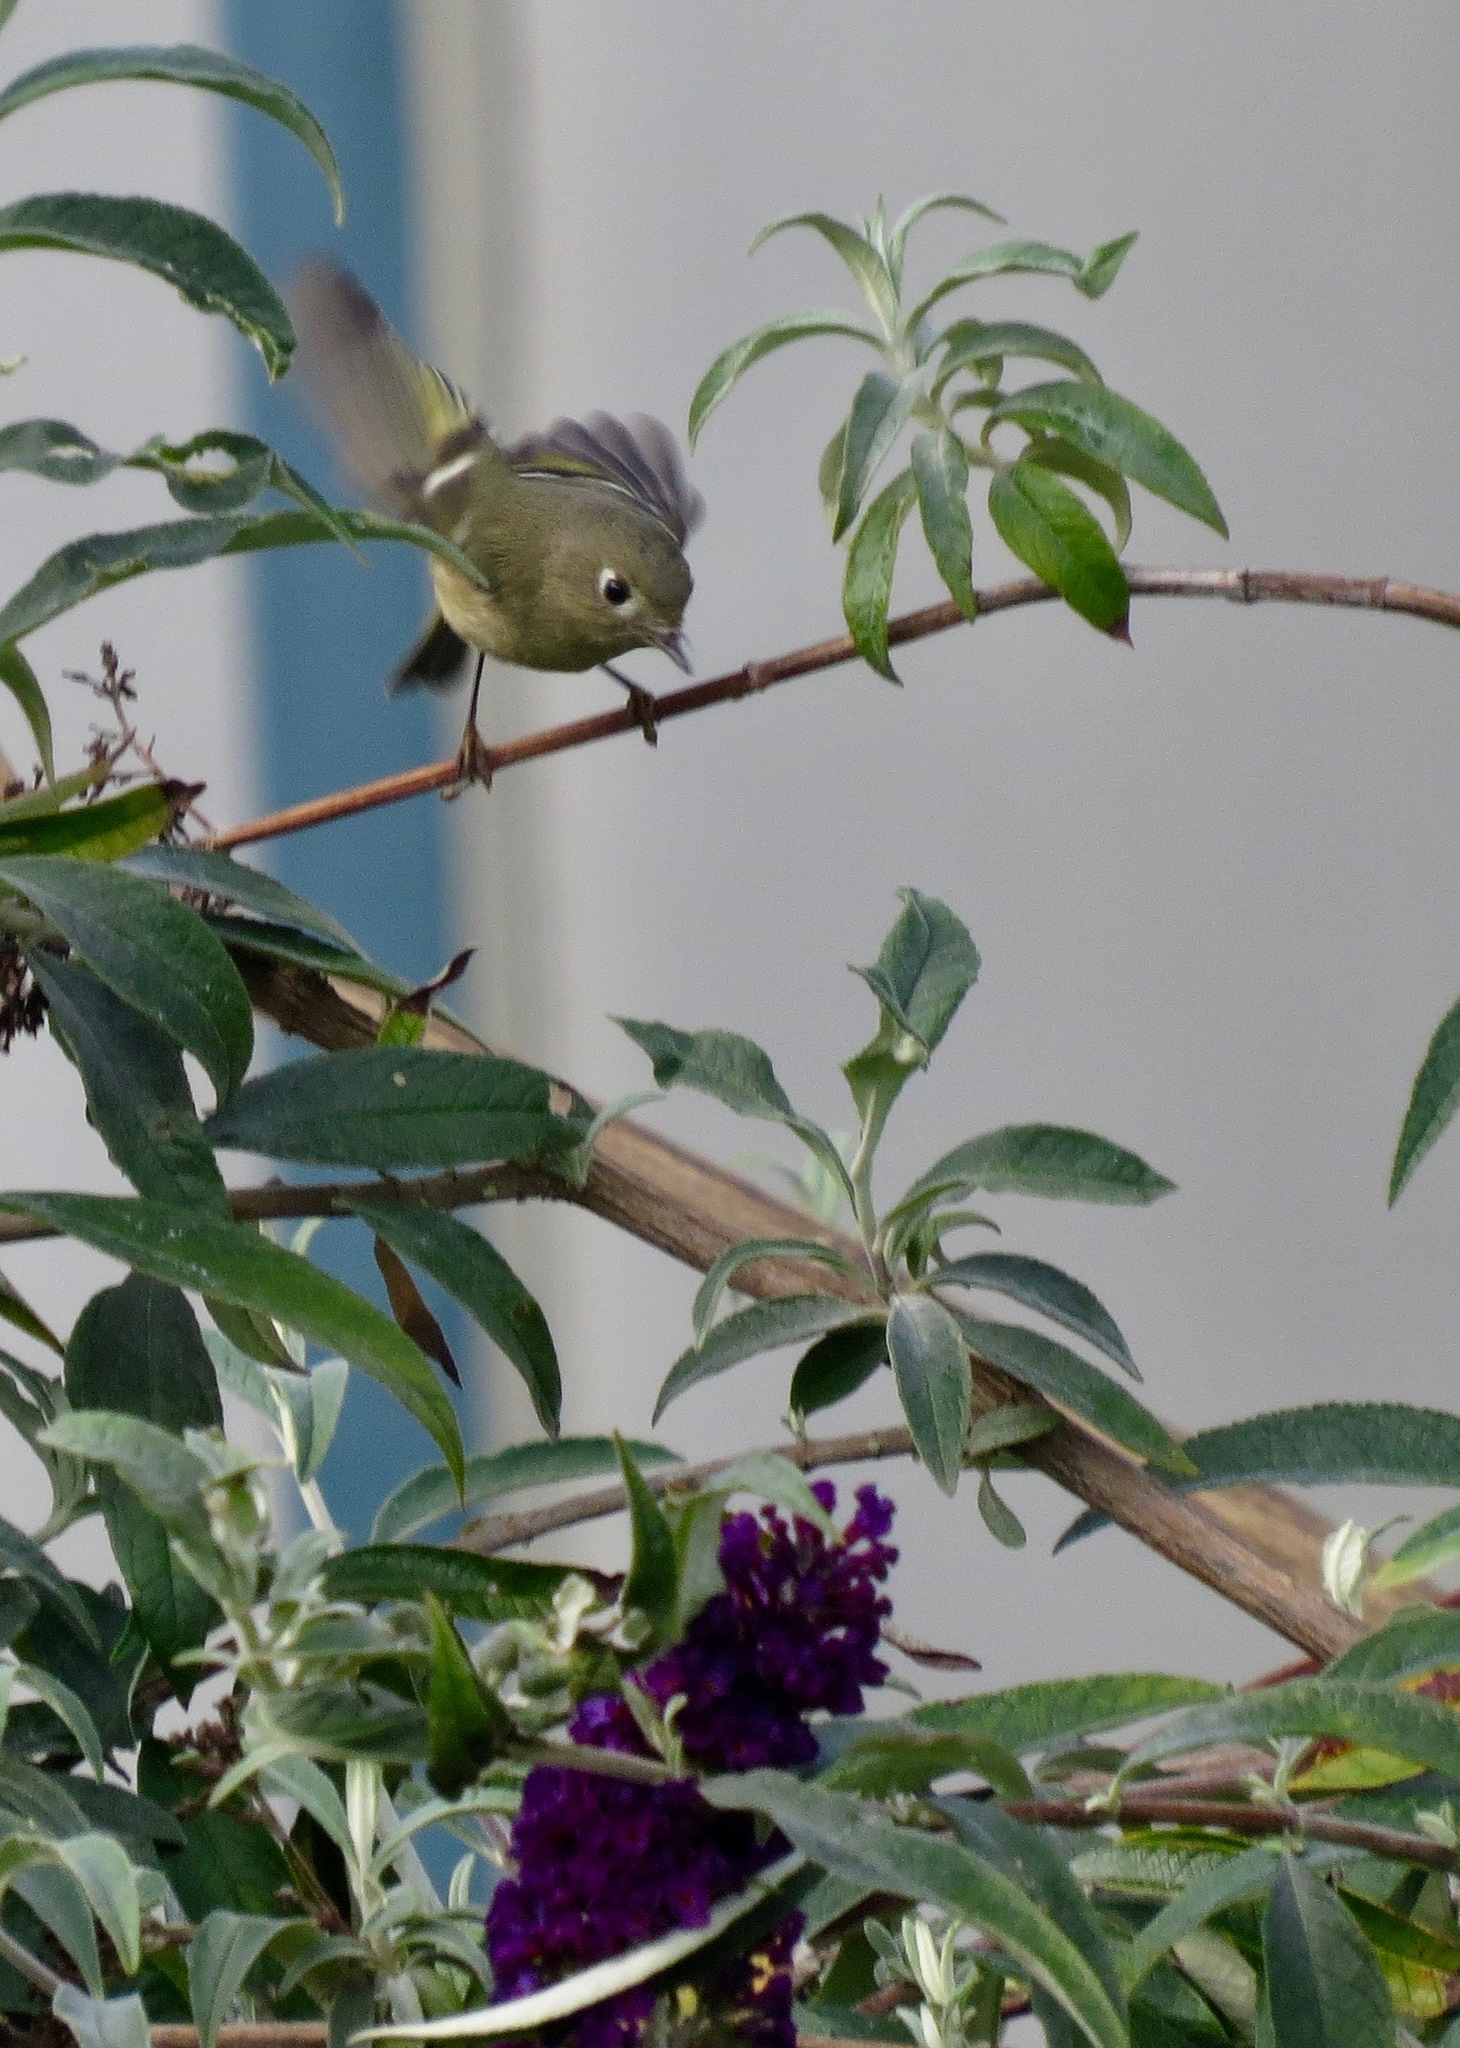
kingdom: Animalia
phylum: Chordata
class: Aves
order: Passeriformes
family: Regulidae
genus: Regulus
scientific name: Regulus calendula
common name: Ruby-crowned kinglet
